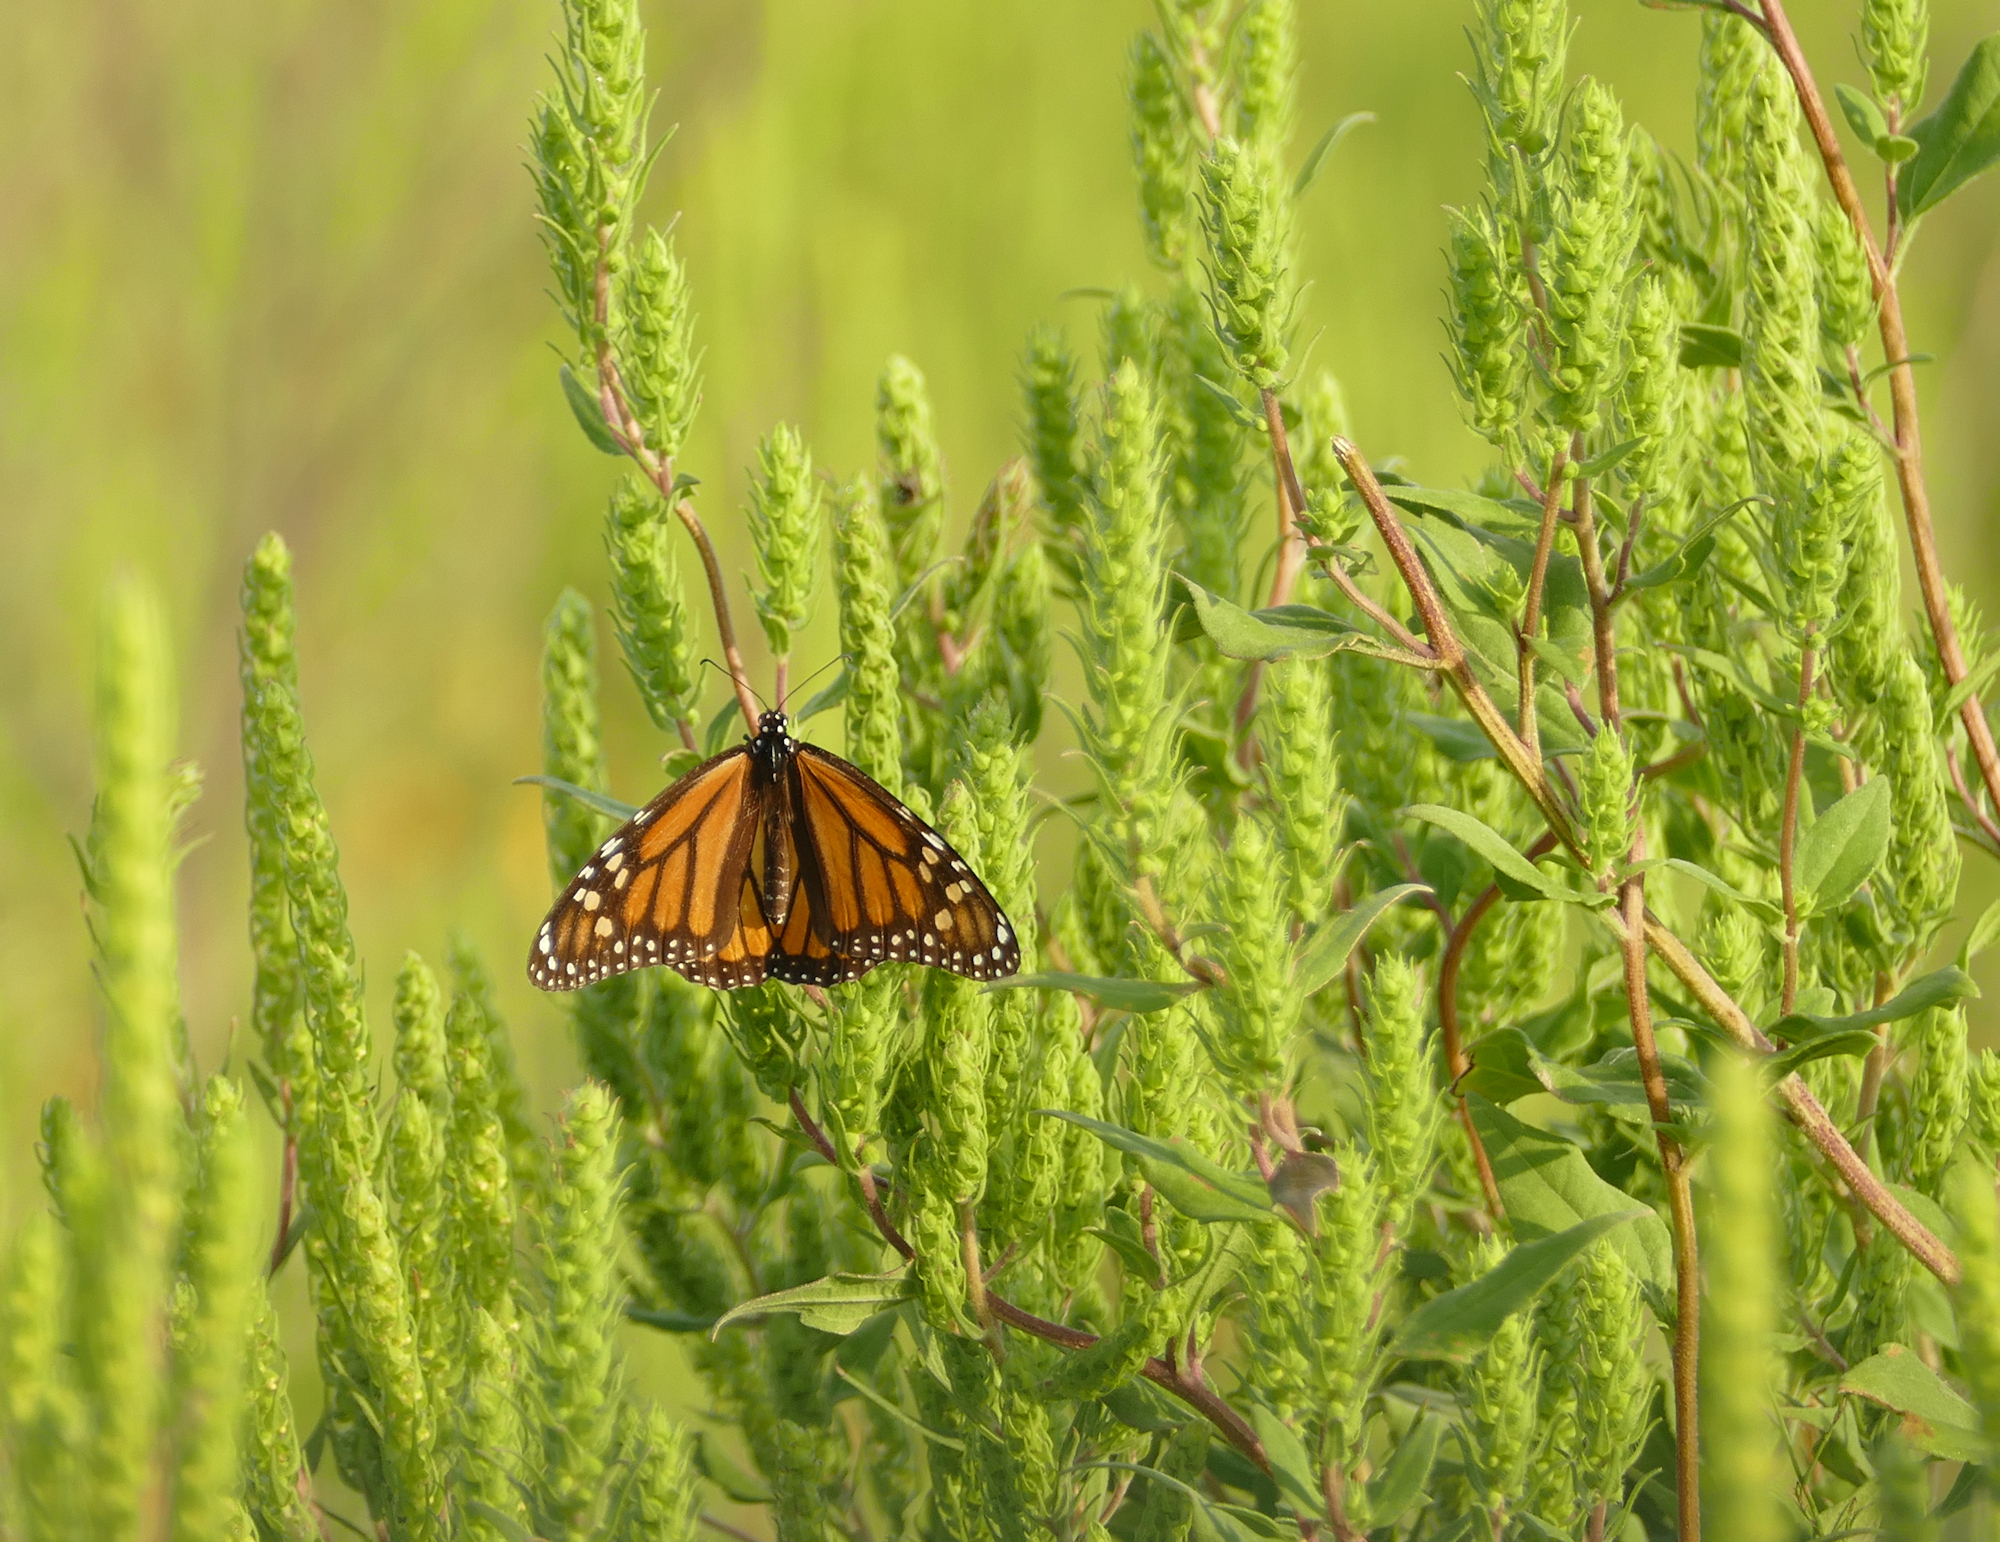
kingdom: Animalia
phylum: Arthropoda
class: Insecta
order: Lepidoptera
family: Nymphalidae
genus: Danaus
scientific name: Danaus plexippus
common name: Monarch
